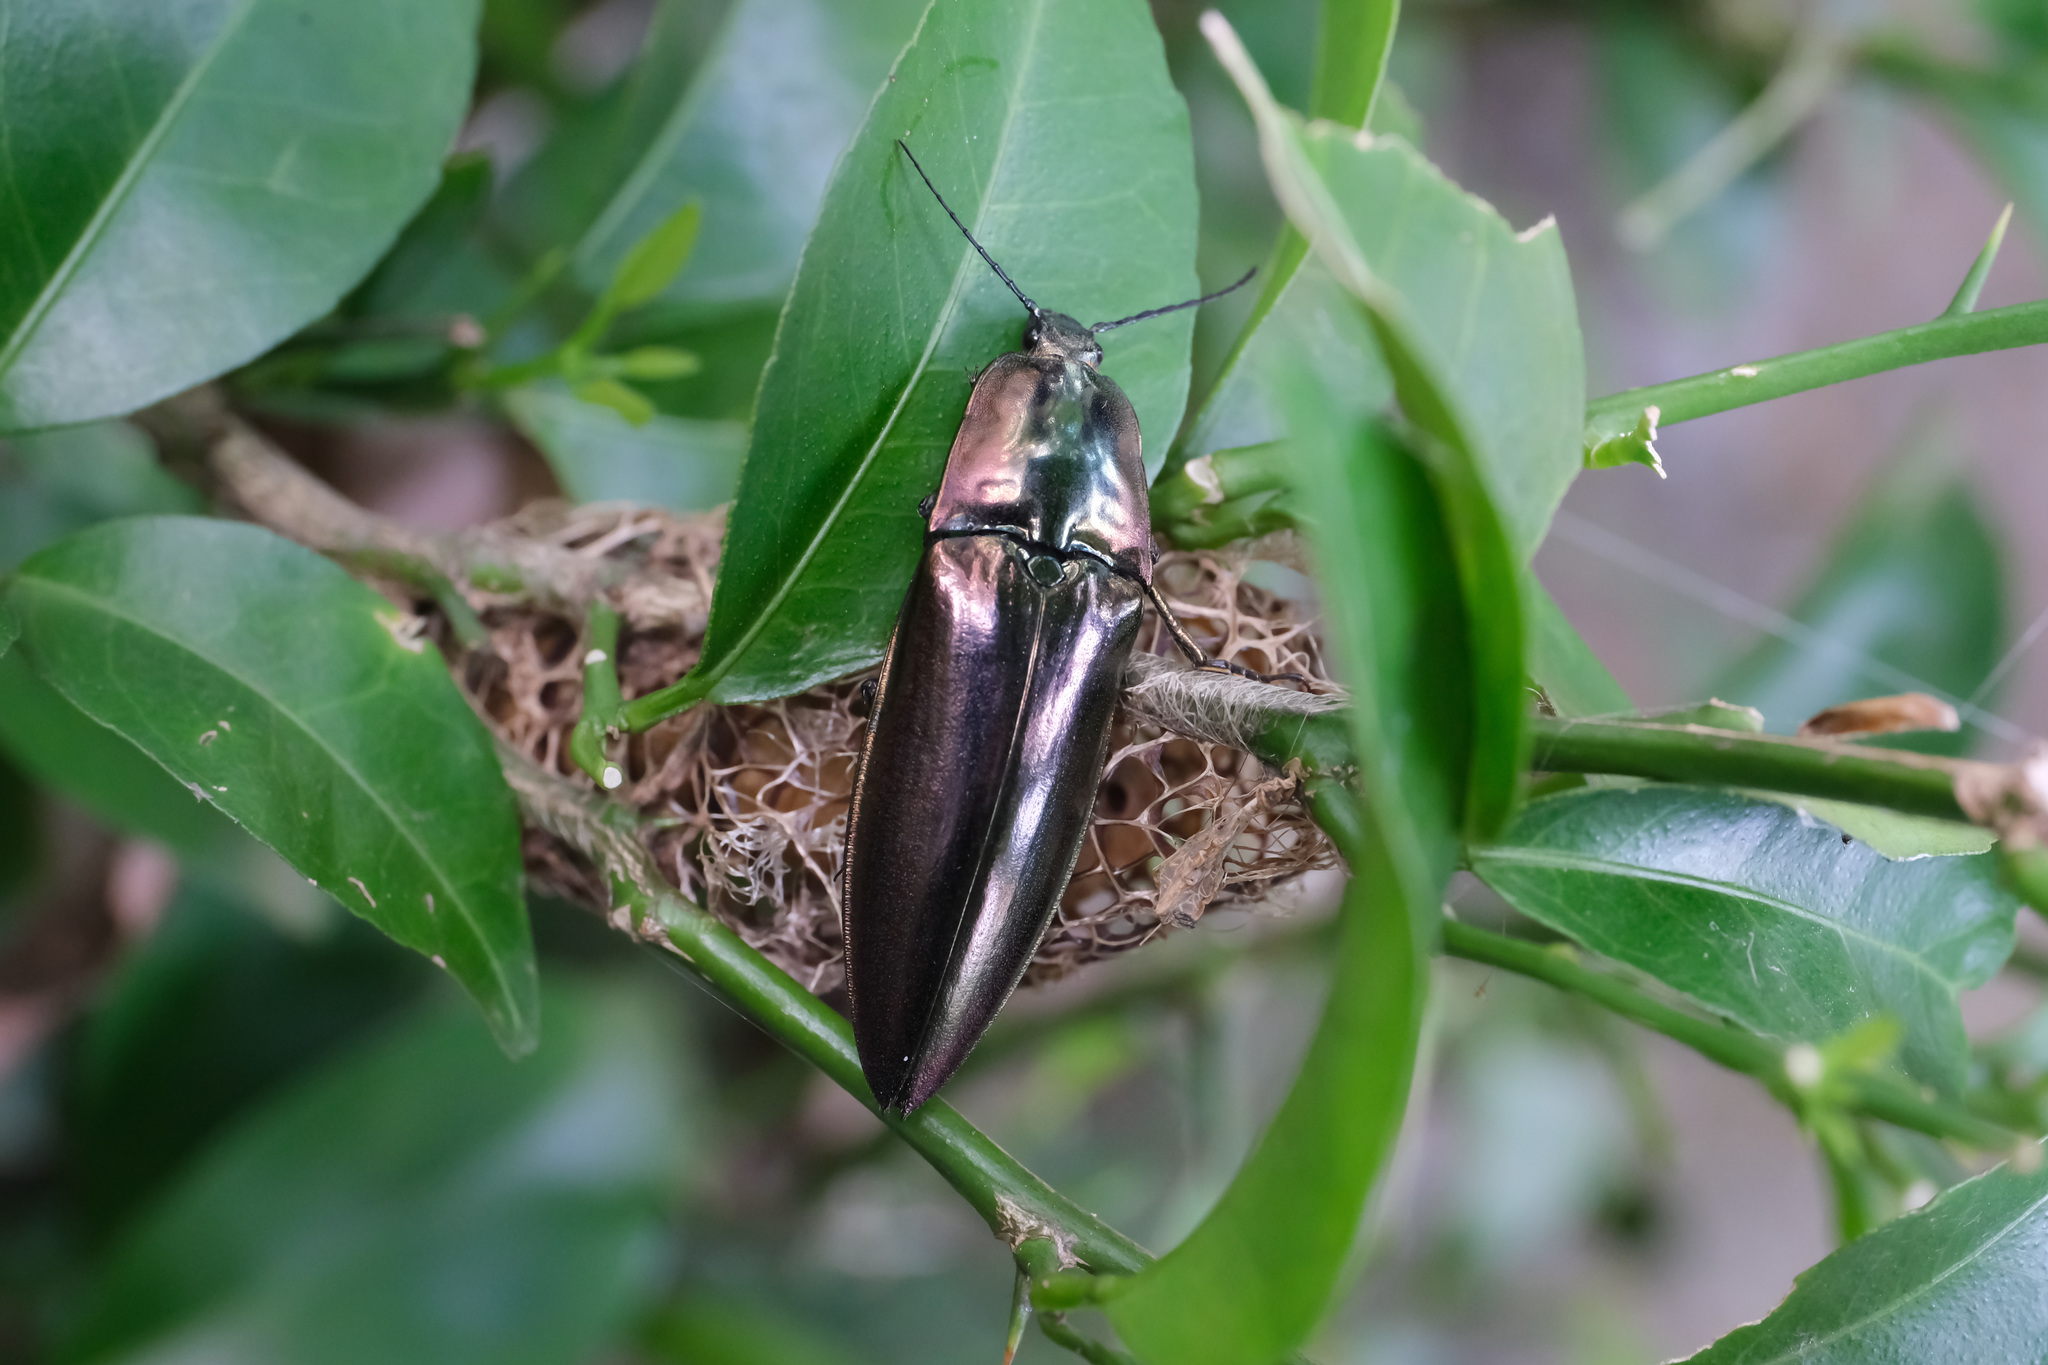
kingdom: Animalia
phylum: Arthropoda
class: Insecta
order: Coleoptera
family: Elateridae
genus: Campsosternus
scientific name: Campsosternus auratus
